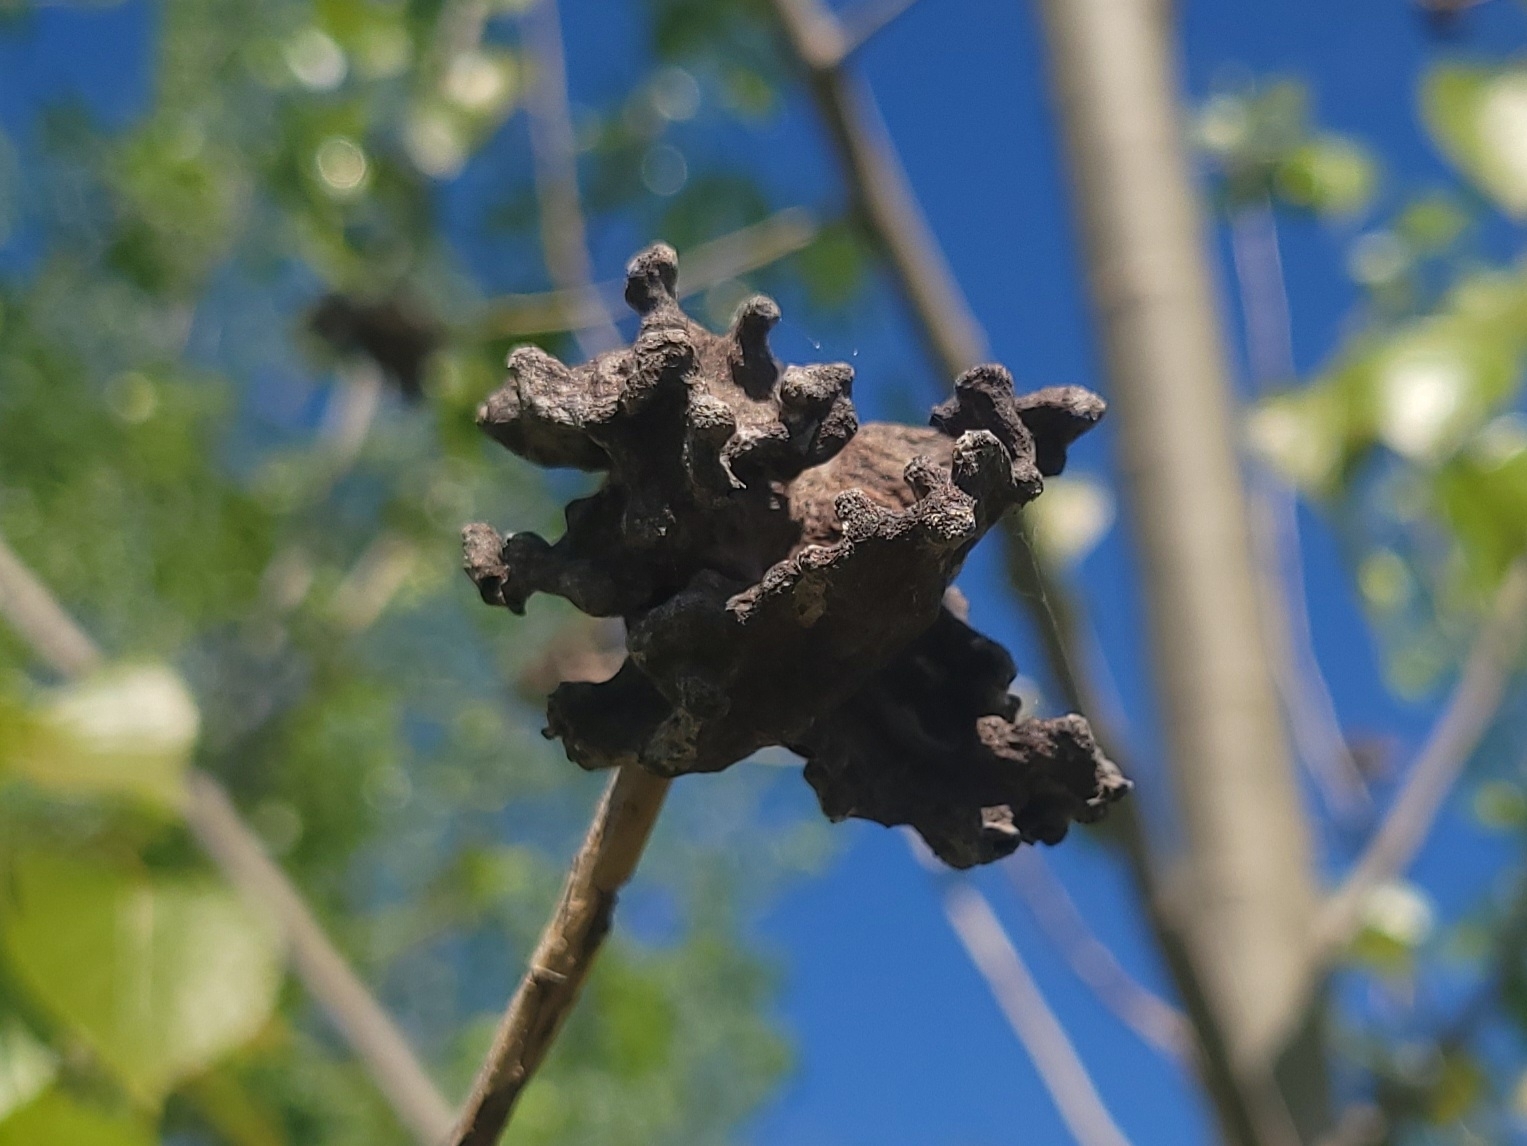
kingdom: Animalia
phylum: Arthropoda
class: Insecta
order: Hemiptera
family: Aphididae
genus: Mordwilkoja
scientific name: Mordwilkoja vagabunda
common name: Poplar vagabond aphid
